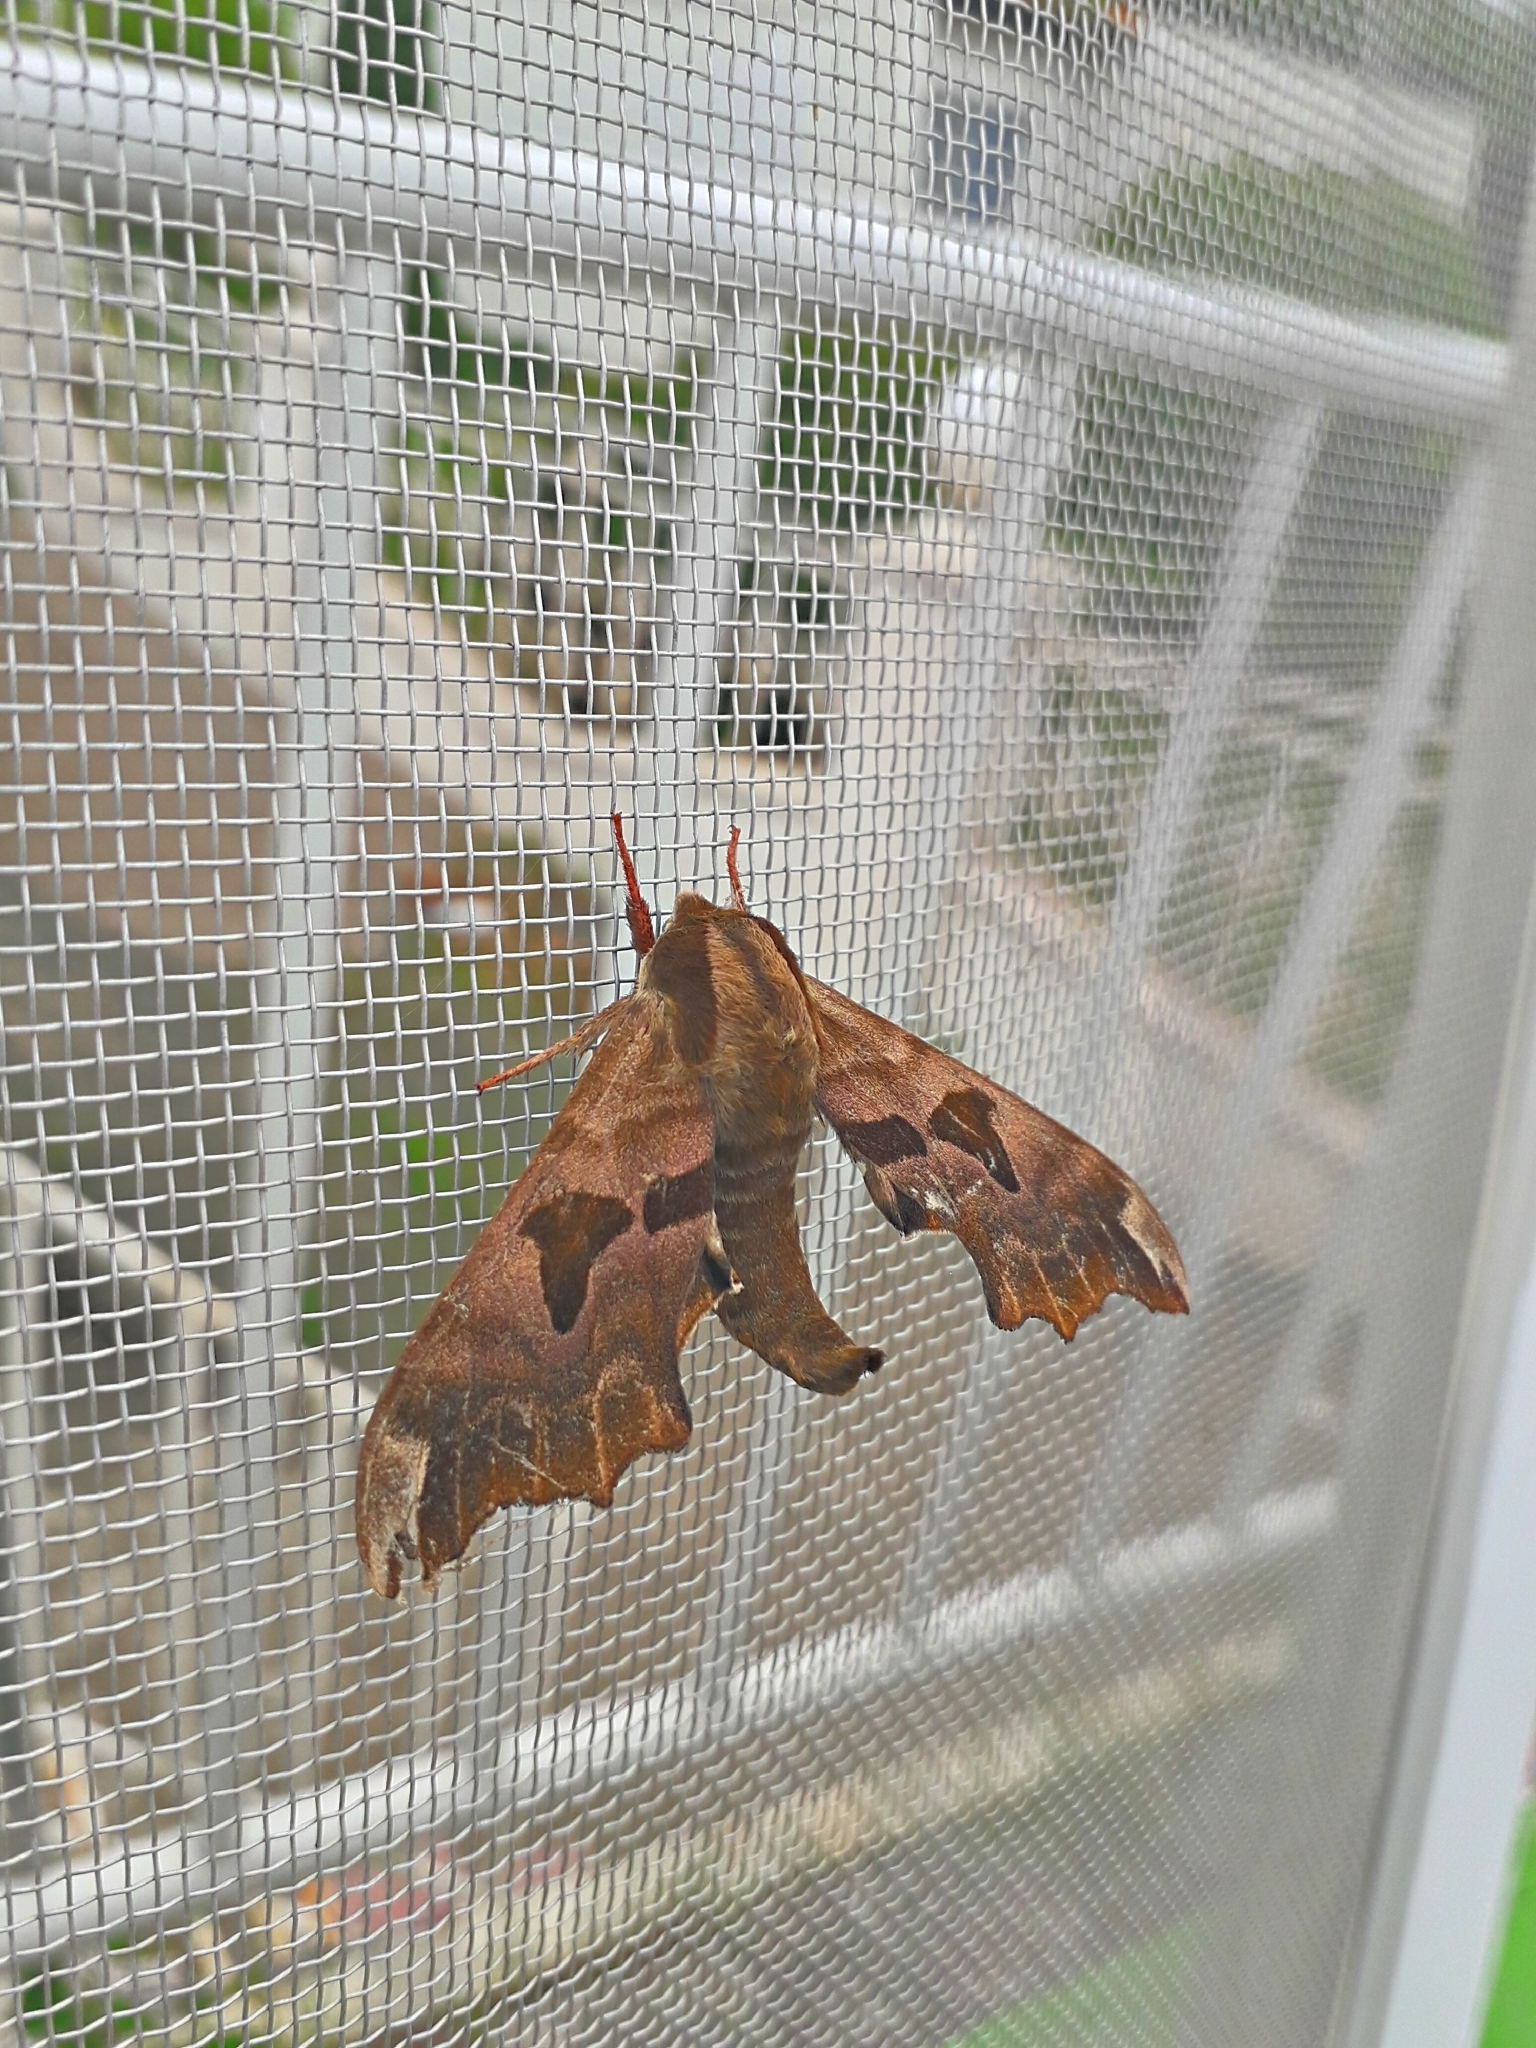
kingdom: Animalia
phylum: Arthropoda
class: Insecta
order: Lepidoptera
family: Sphingidae
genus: Mimas
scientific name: Mimas tiliae
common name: Lime hawk-moth
